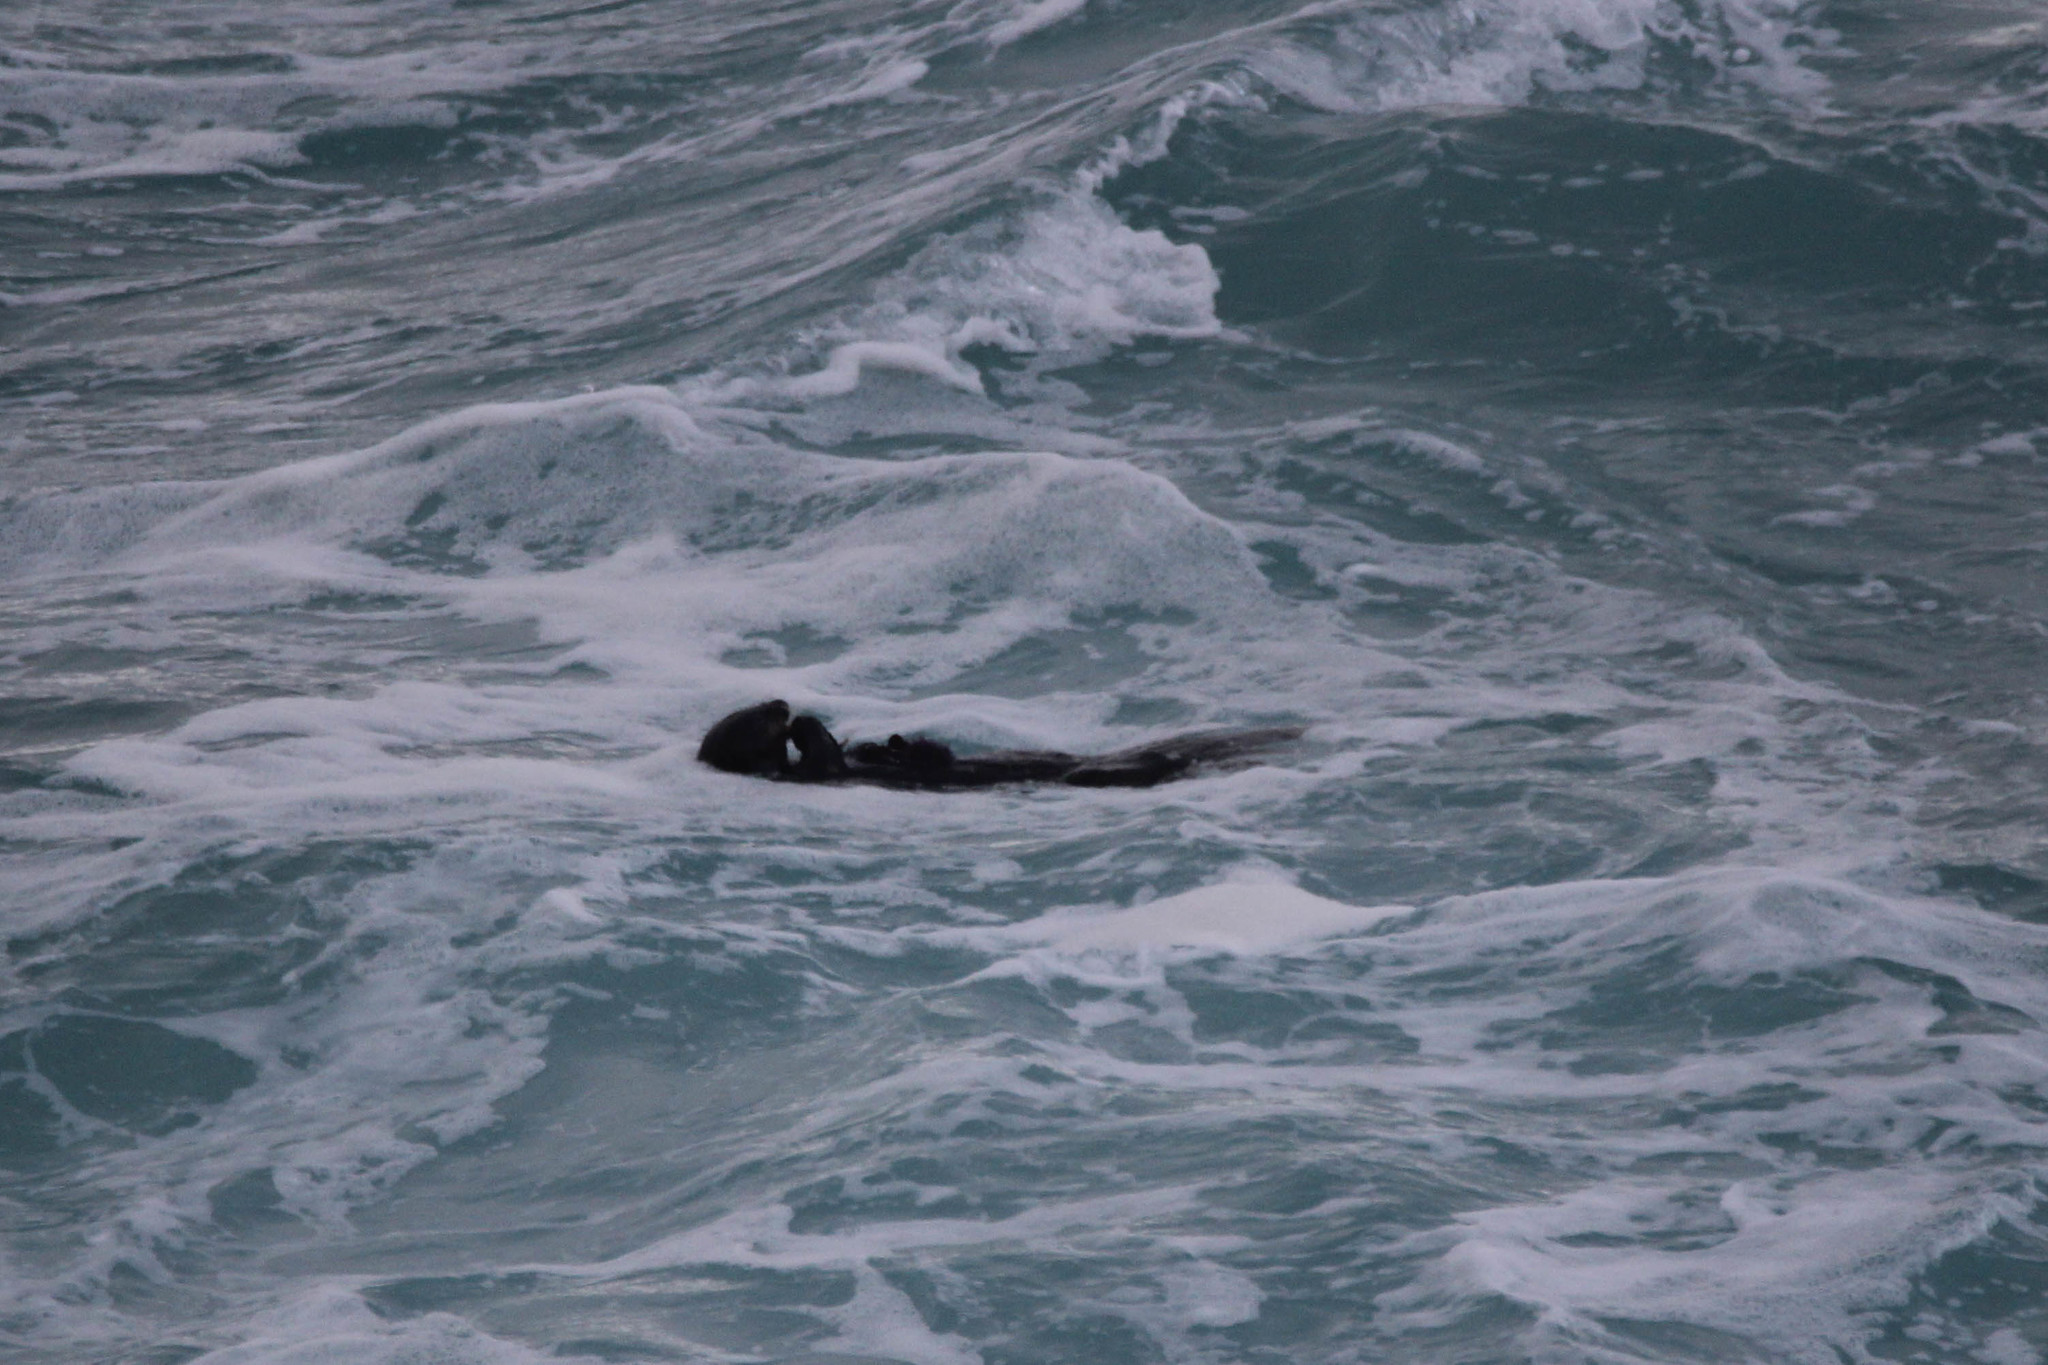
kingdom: Animalia
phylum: Chordata
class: Mammalia
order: Carnivora
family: Mustelidae
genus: Enhydra
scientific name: Enhydra lutris
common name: Sea otter
